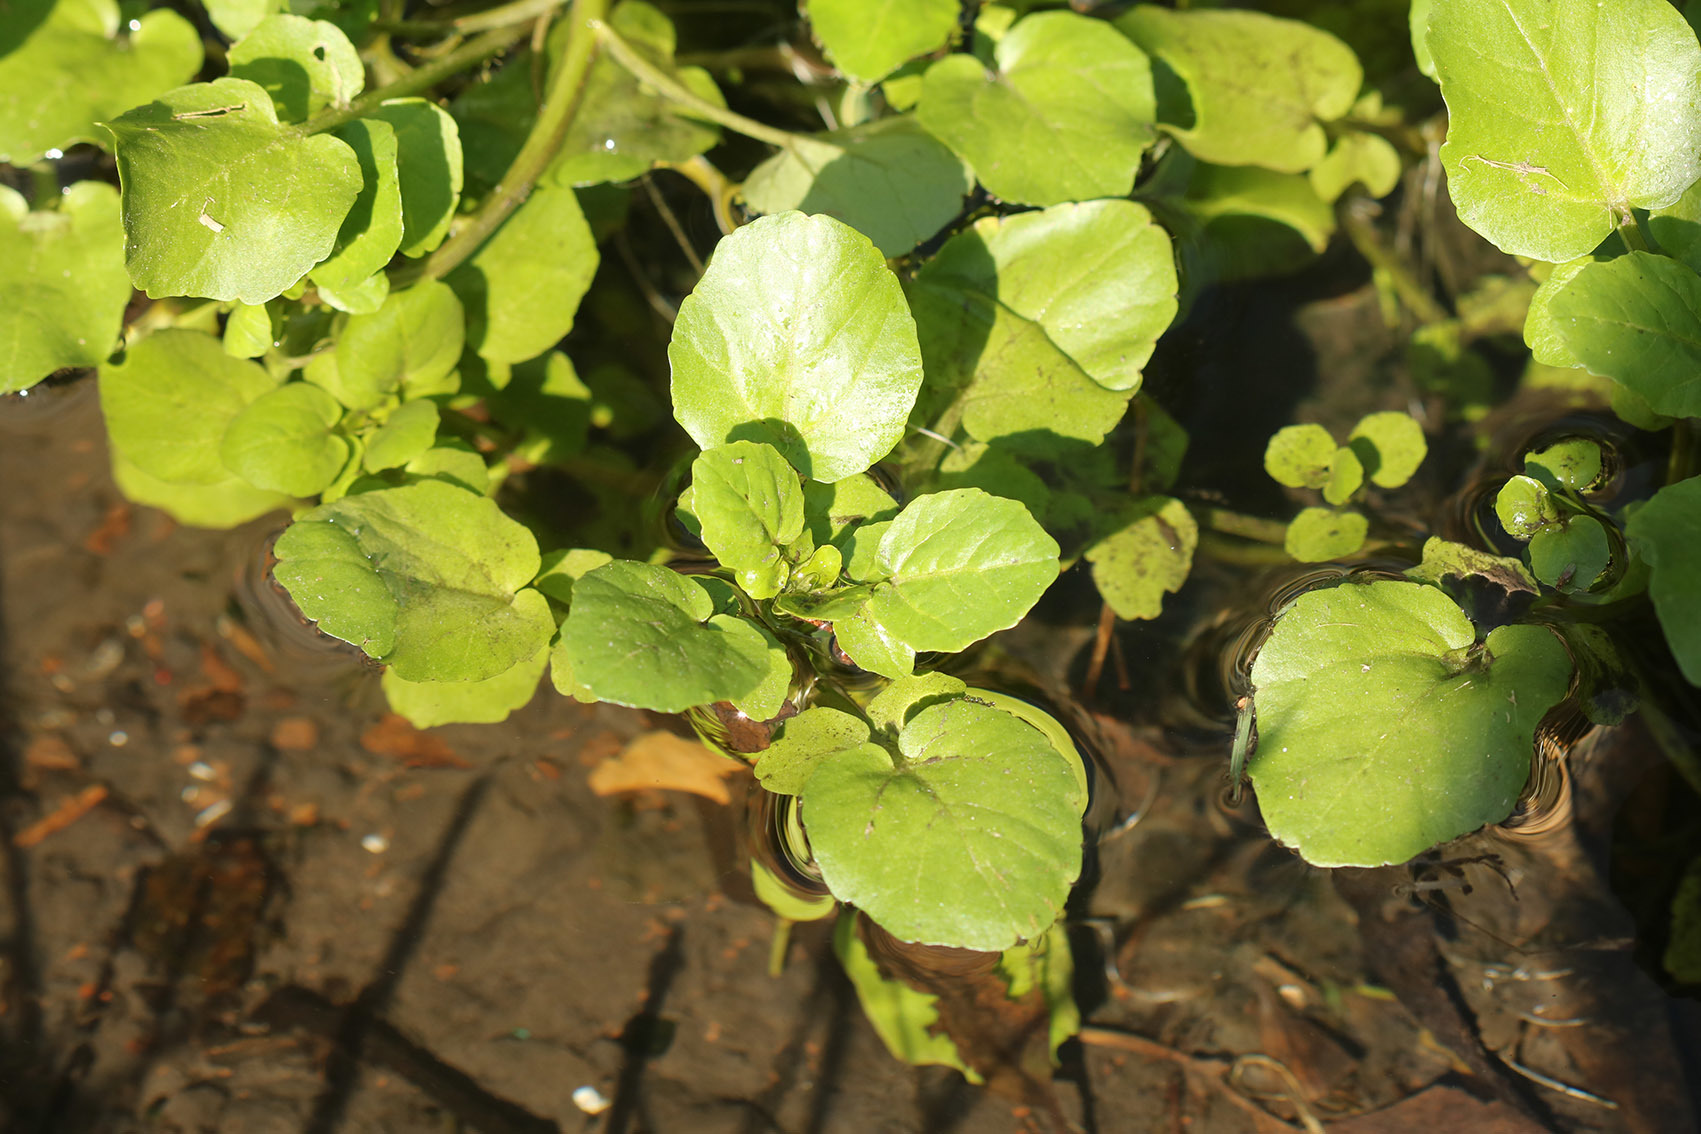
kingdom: Plantae
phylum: Tracheophyta
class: Magnoliopsida
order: Brassicales
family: Brassicaceae
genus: Nasturtium
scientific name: Nasturtium officinale
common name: Watercress
